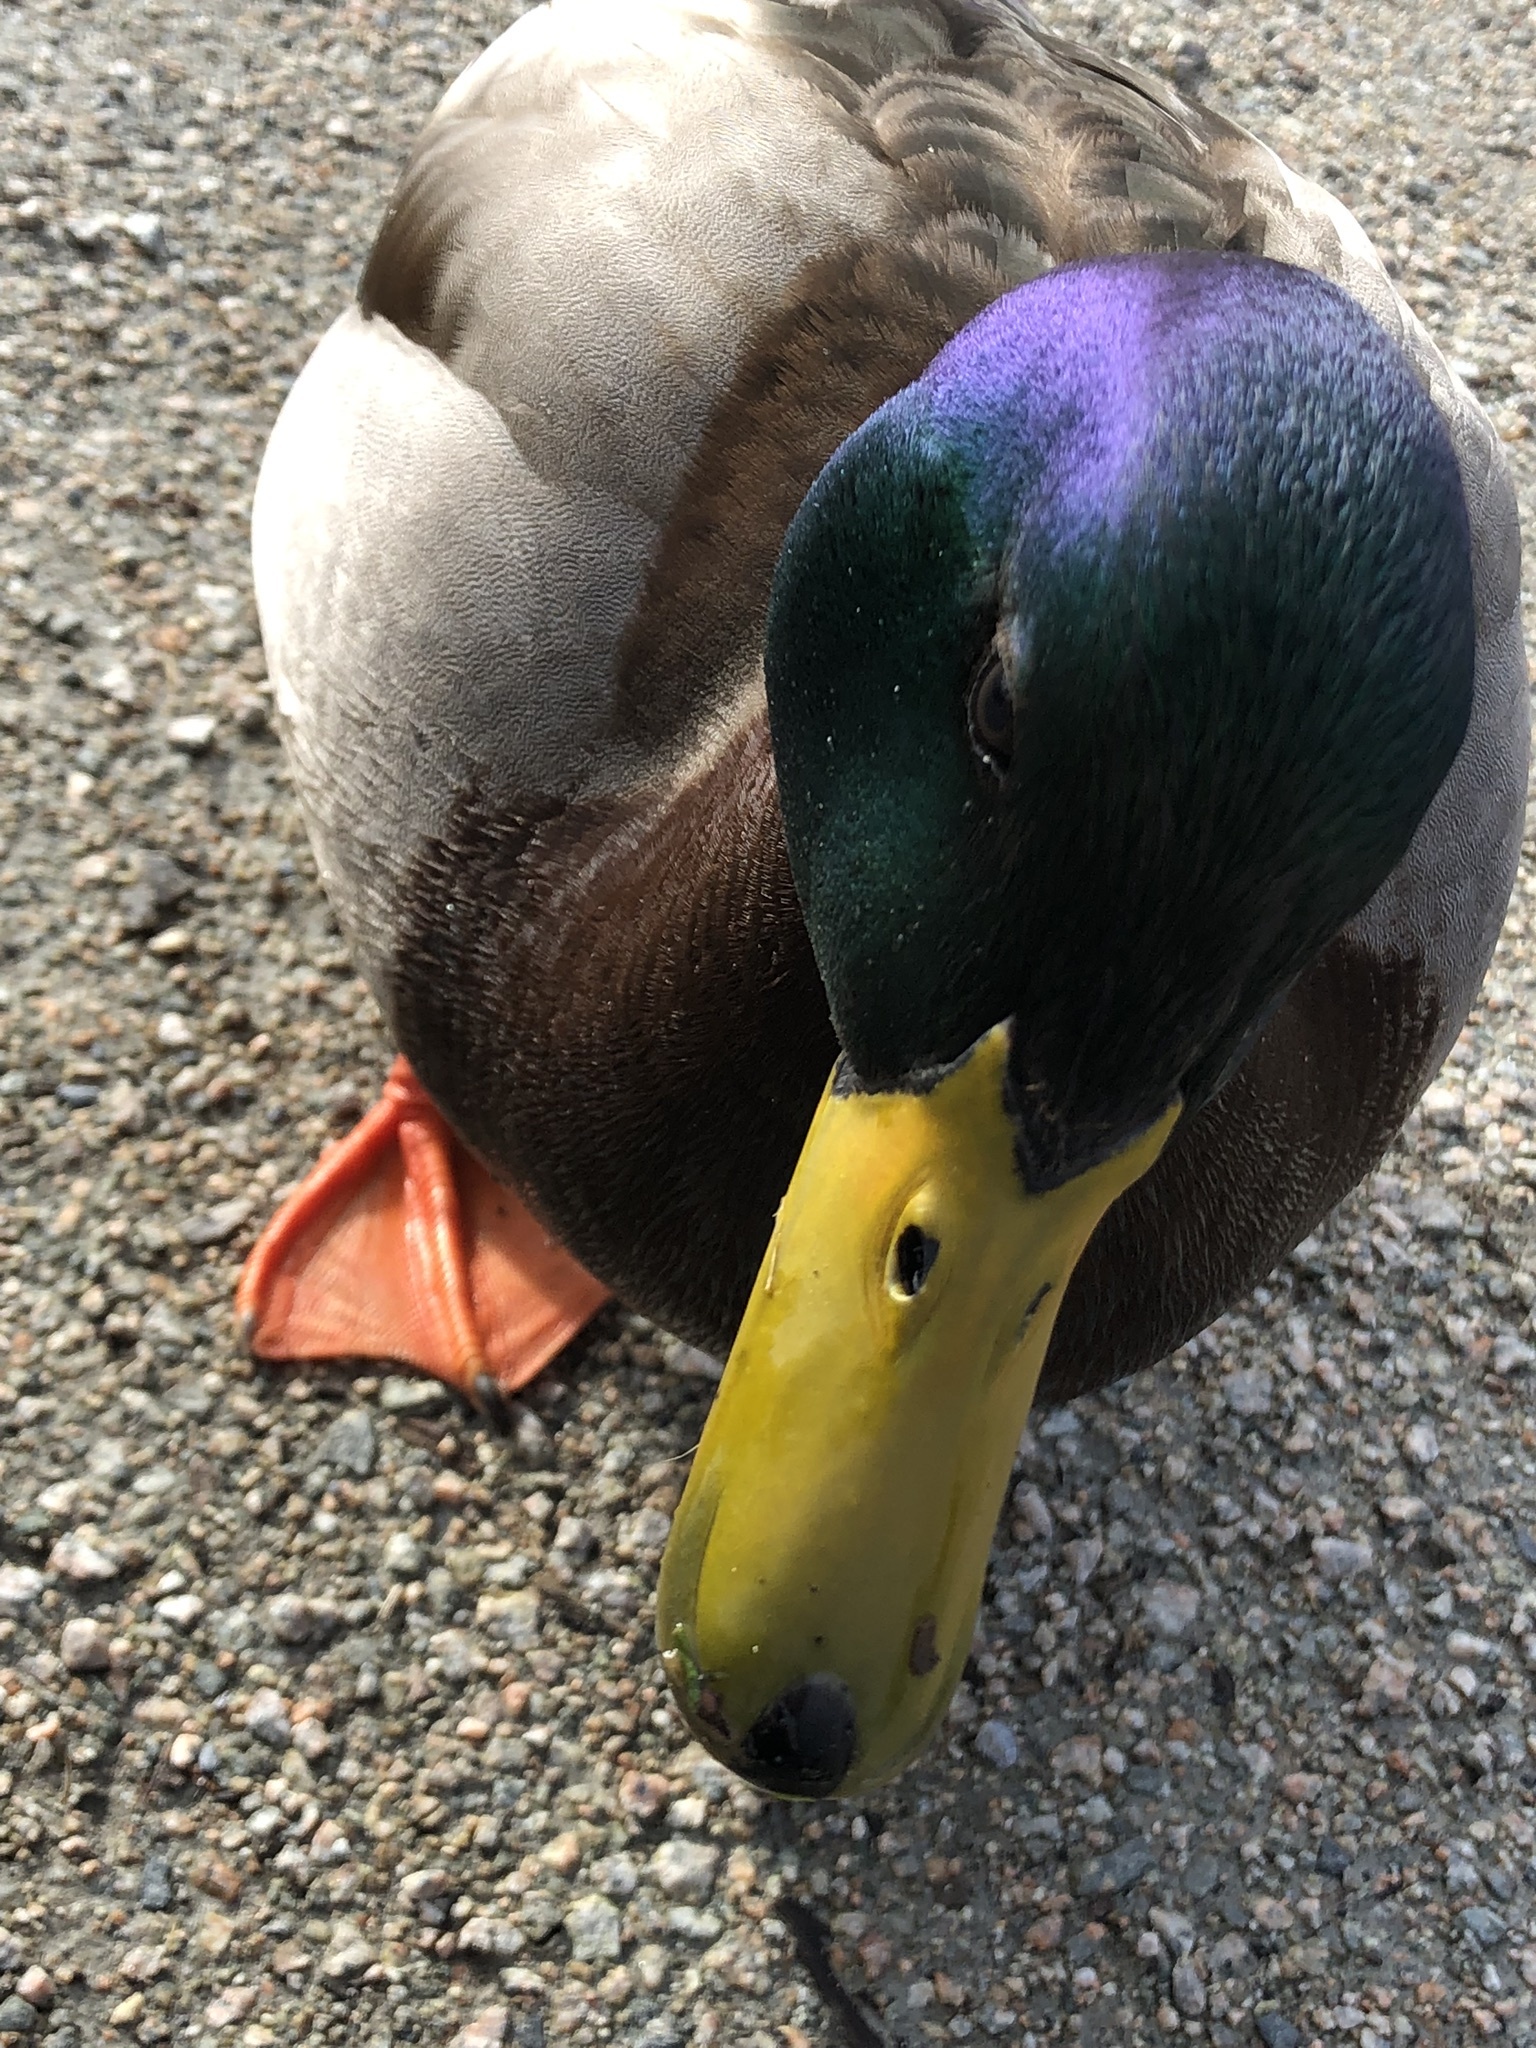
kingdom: Animalia
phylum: Chordata
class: Aves
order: Anseriformes
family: Anatidae
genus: Anas
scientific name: Anas platyrhynchos
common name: Mallard
